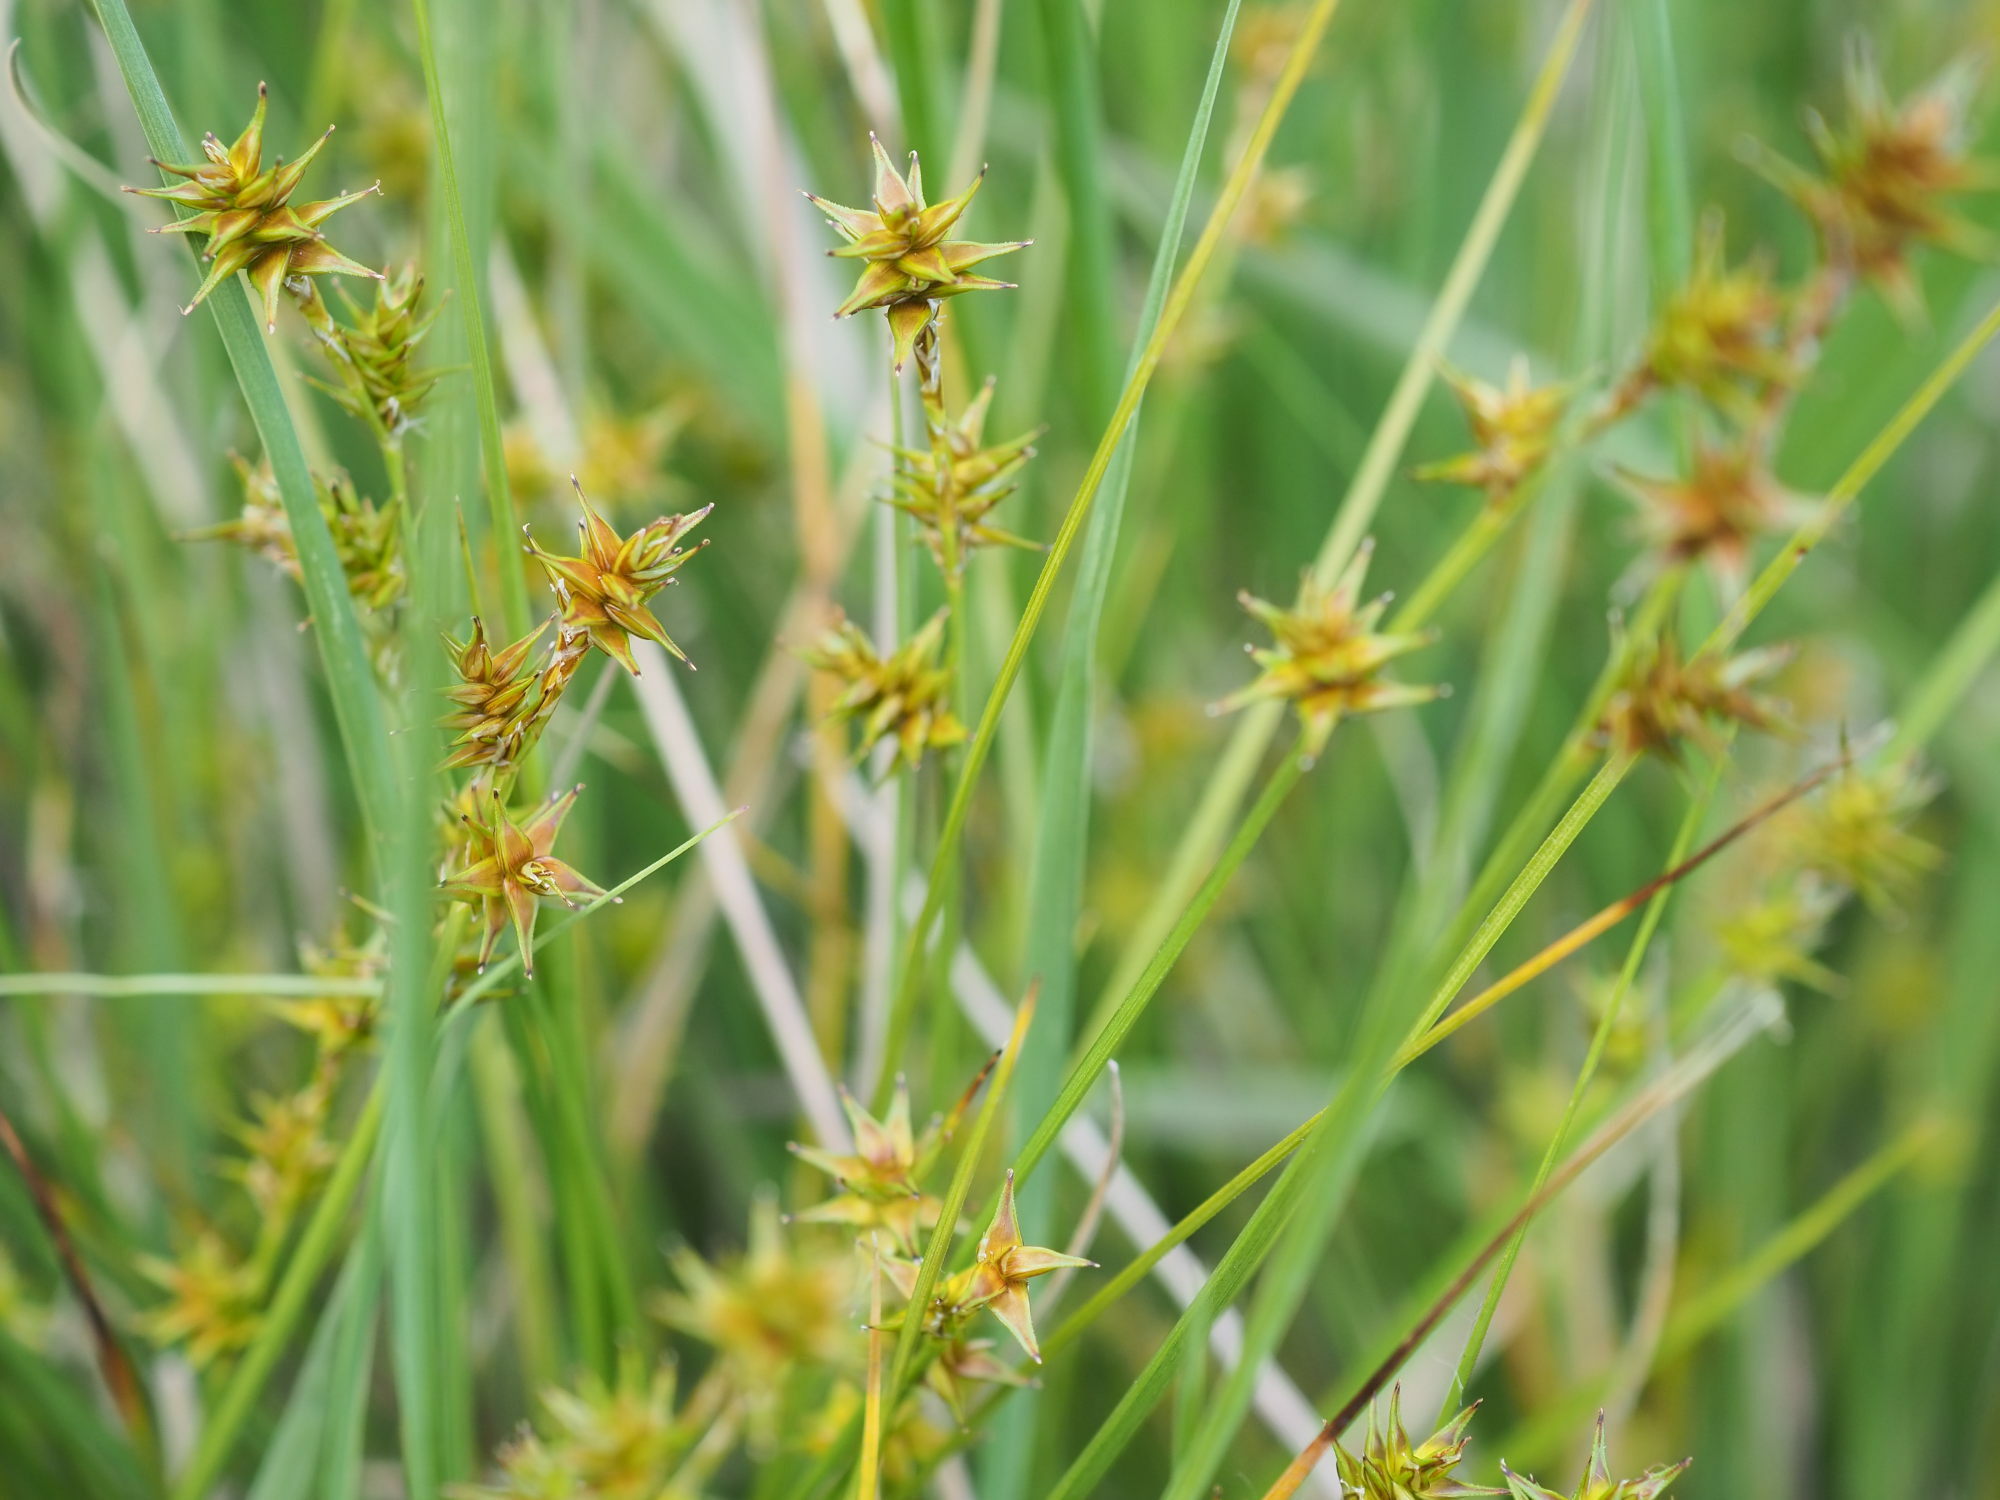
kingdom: Plantae
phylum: Tracheophyta
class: Liliopsida
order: Poales
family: Cyperaceae
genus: Carex
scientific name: Carex echinata
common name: Star sedge
